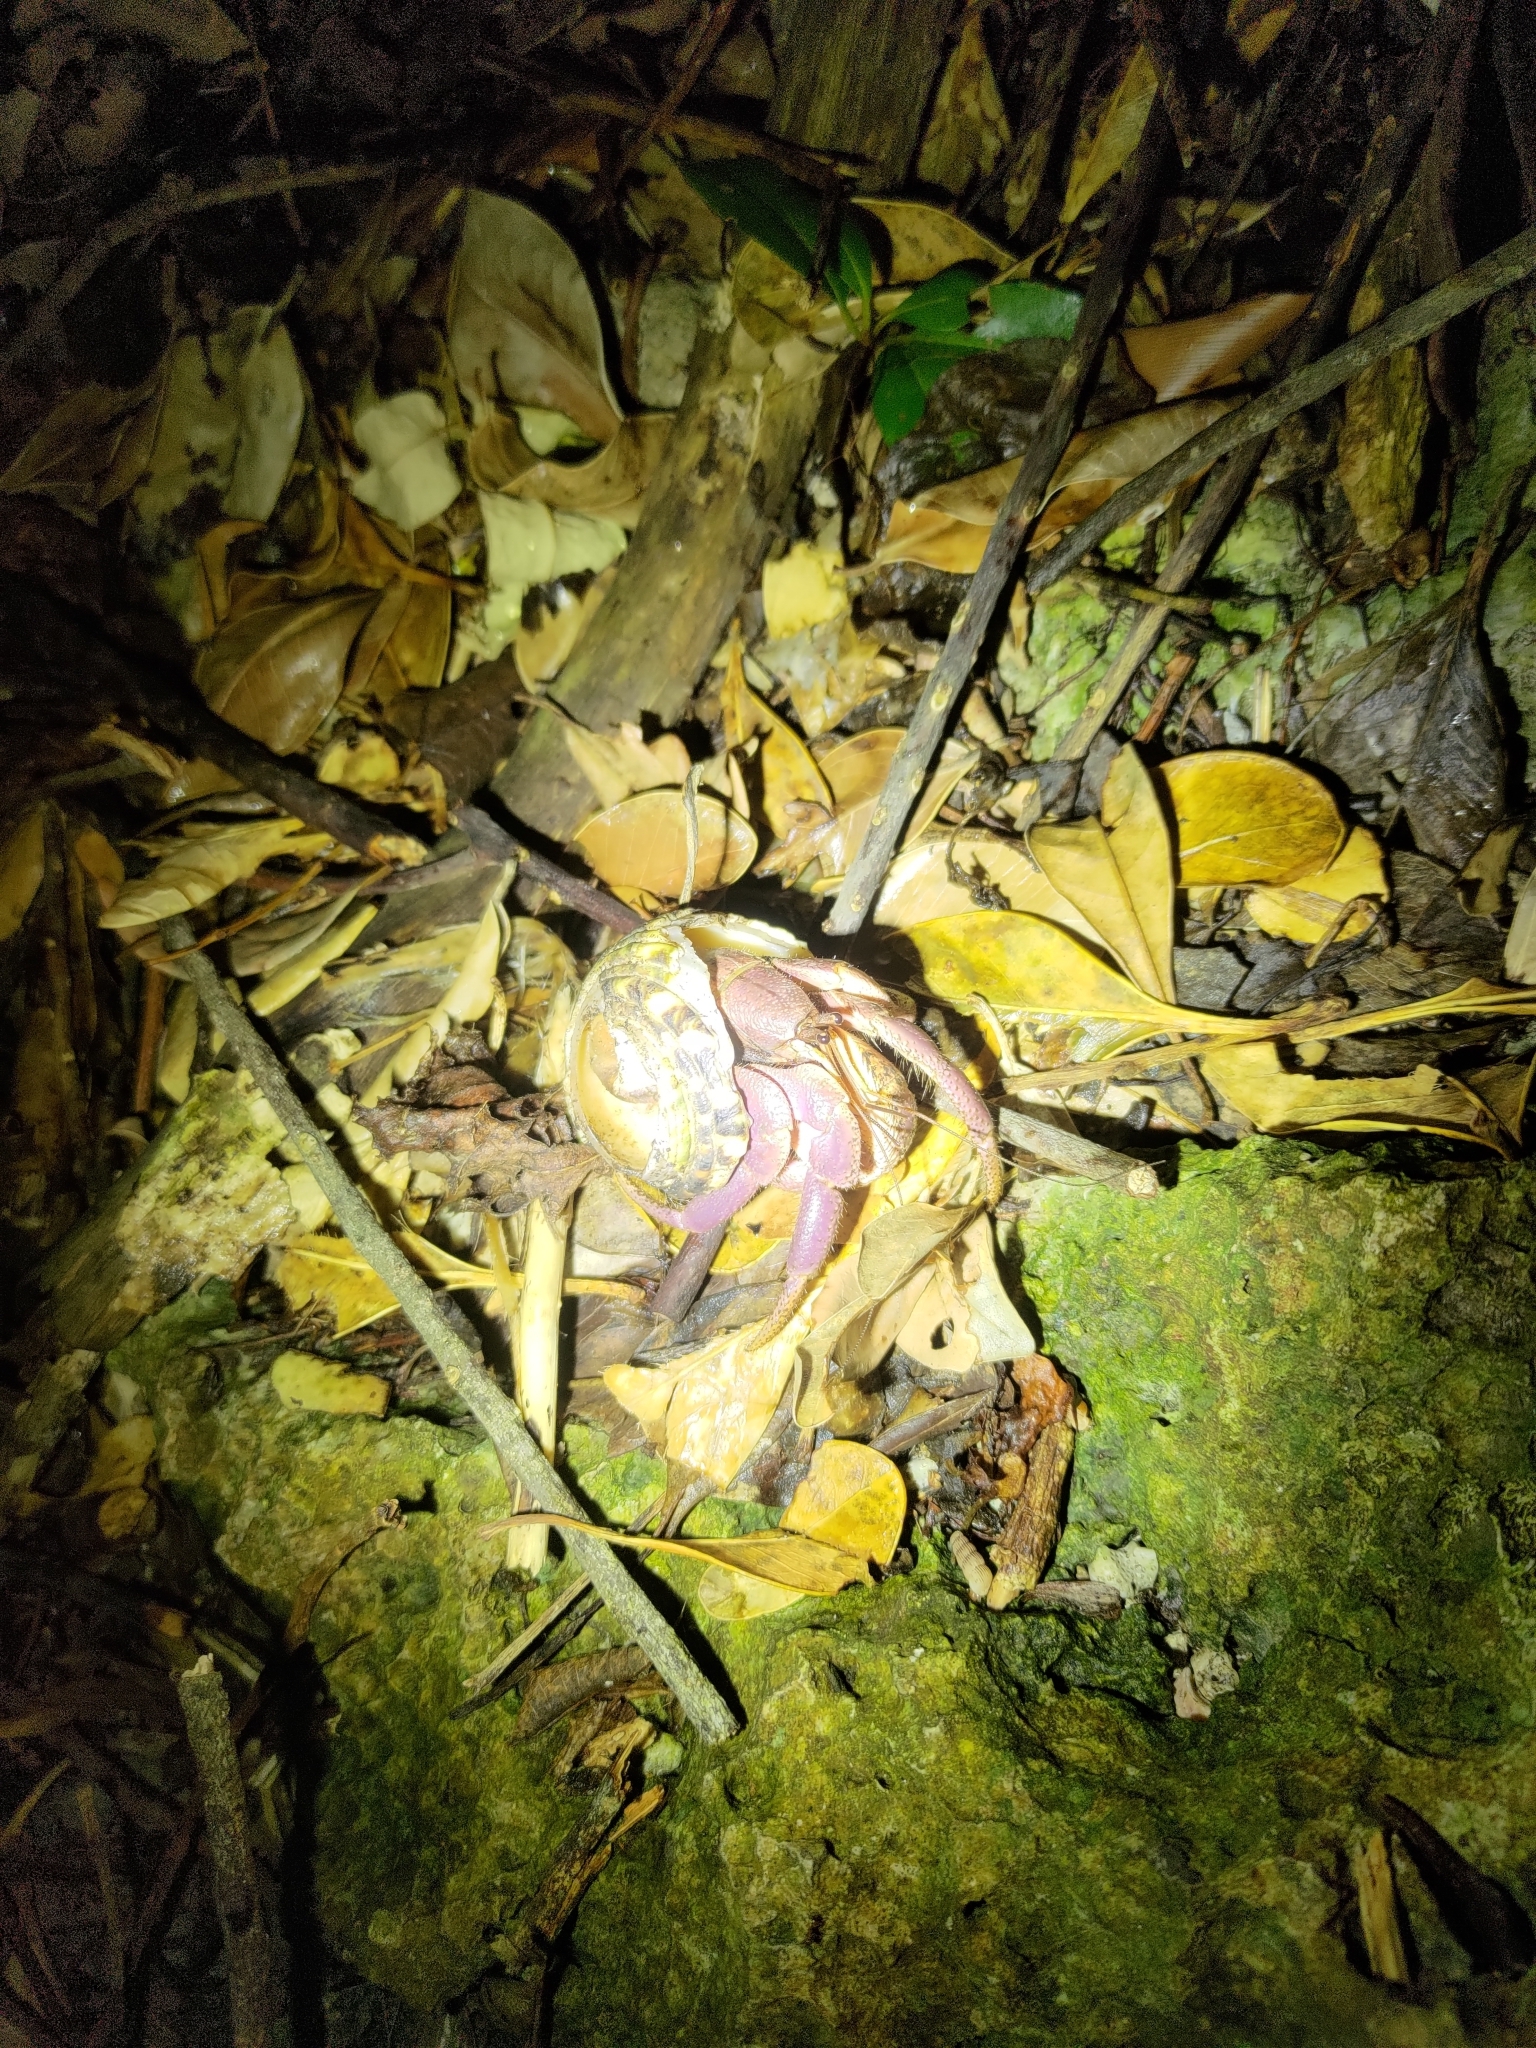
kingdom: Animalia
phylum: Arthropoda
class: Malacostraca
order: Decapoda
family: Coenobitidae
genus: Coenobita
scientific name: Coenobita brevimanus
